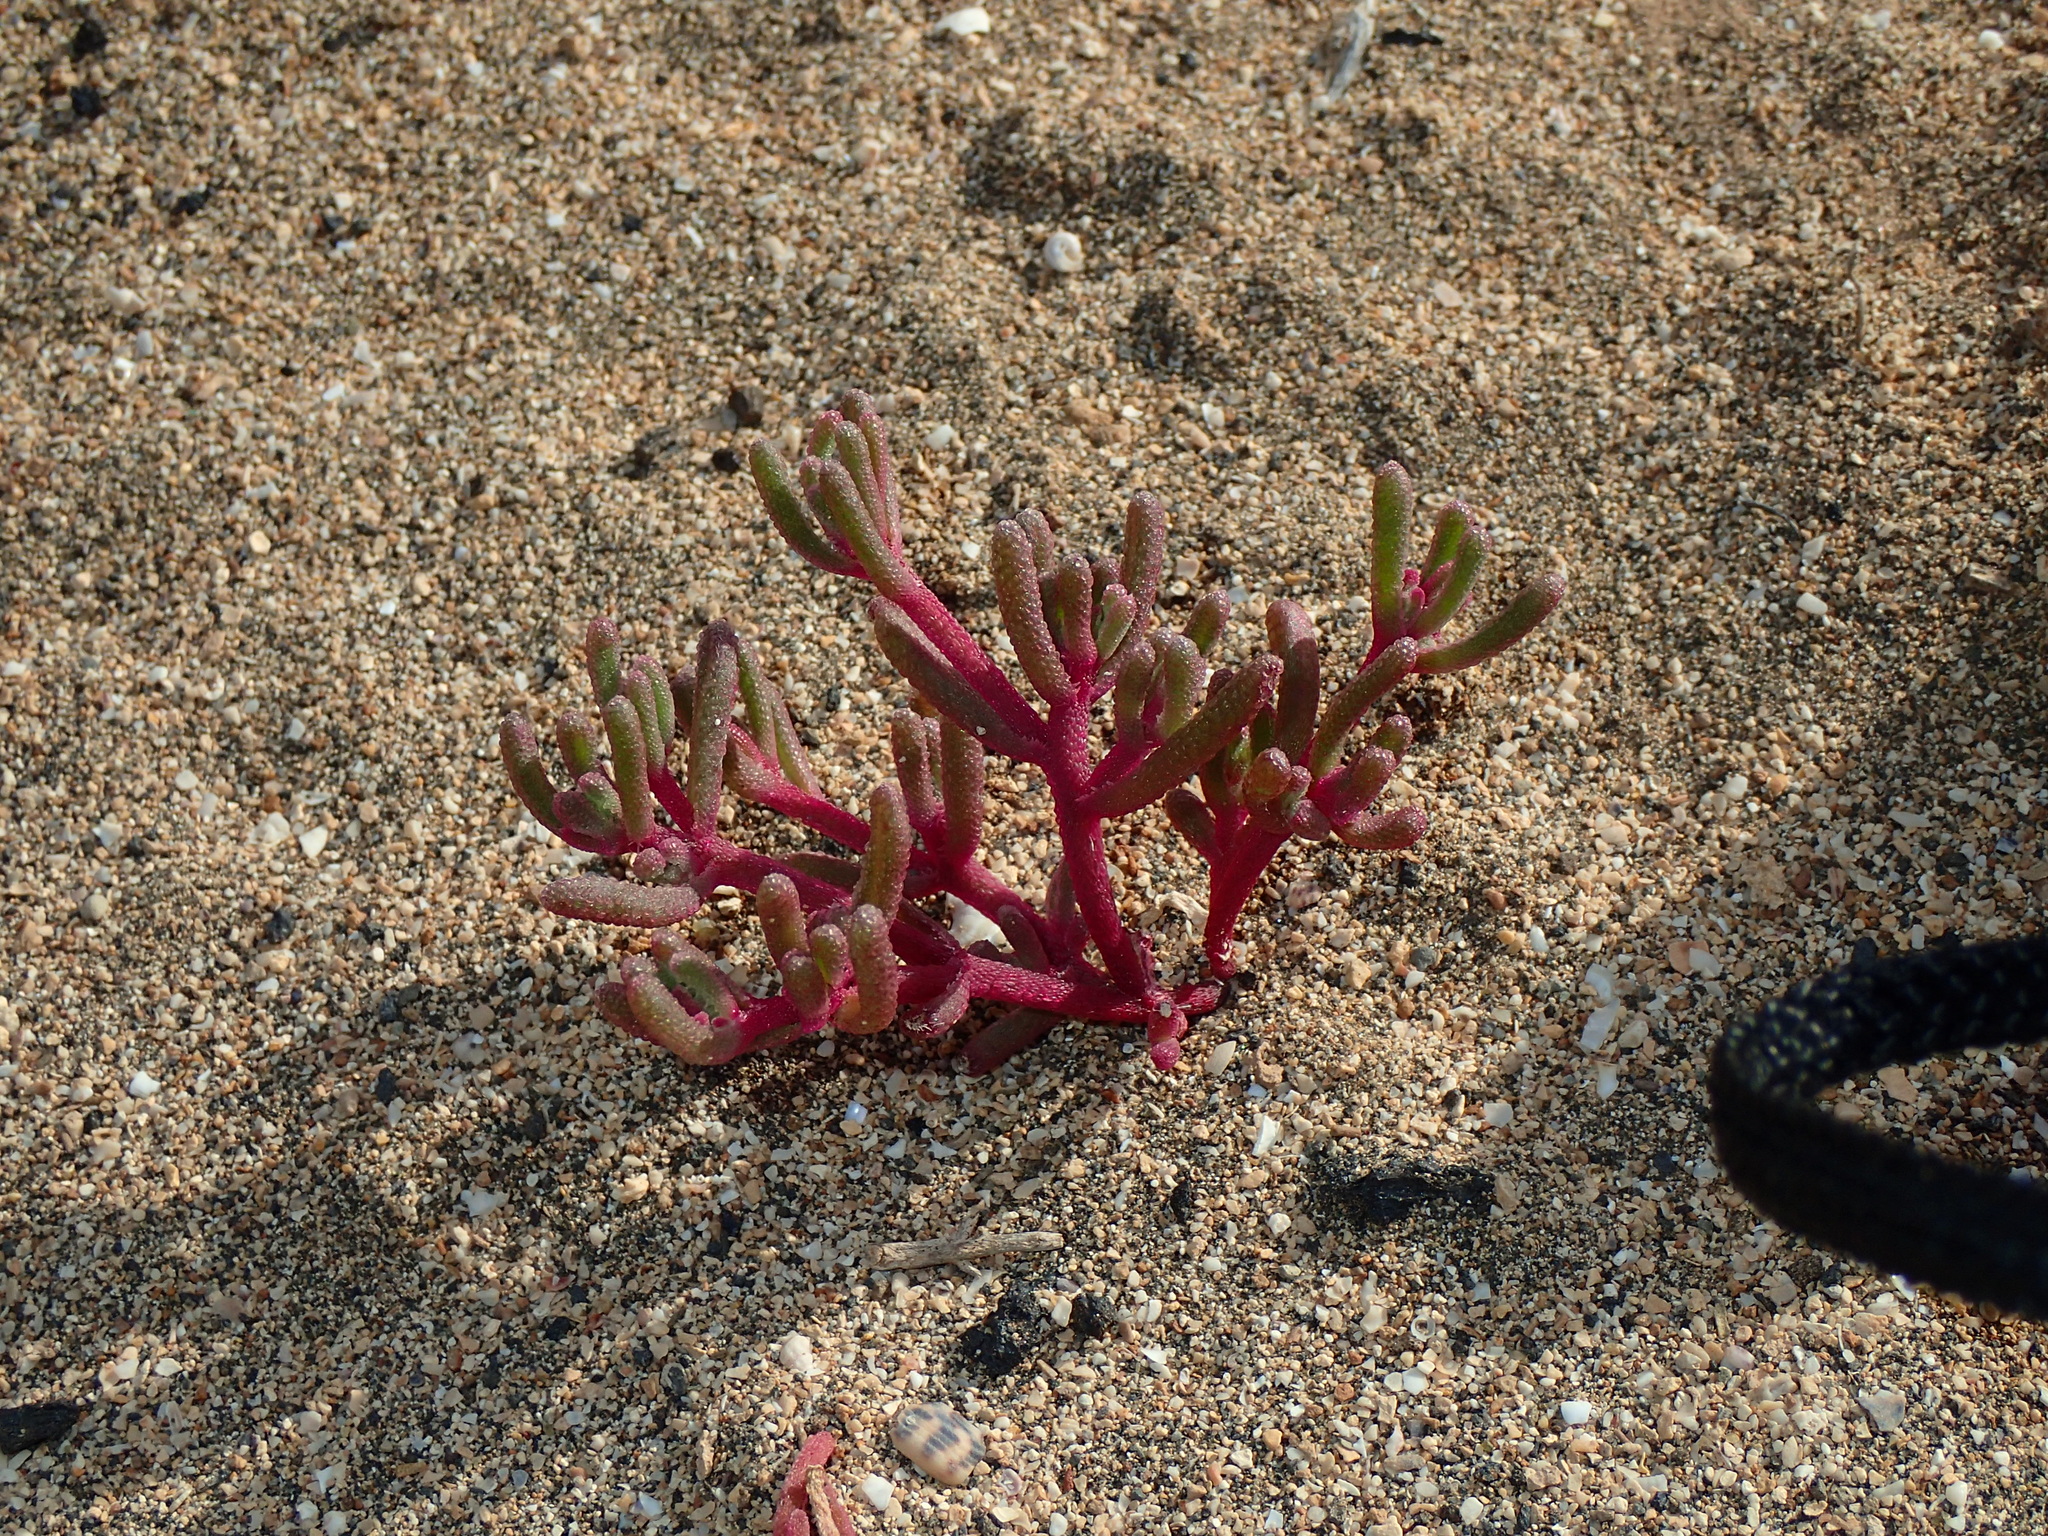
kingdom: Plantae
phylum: Tracheophyta
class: Magnoliopsida
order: Caryophyllales
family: Aizoaceae
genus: Mesembryanthemum
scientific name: Mesembryanthemum nodiflorum
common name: Slenderleaf iceplant
